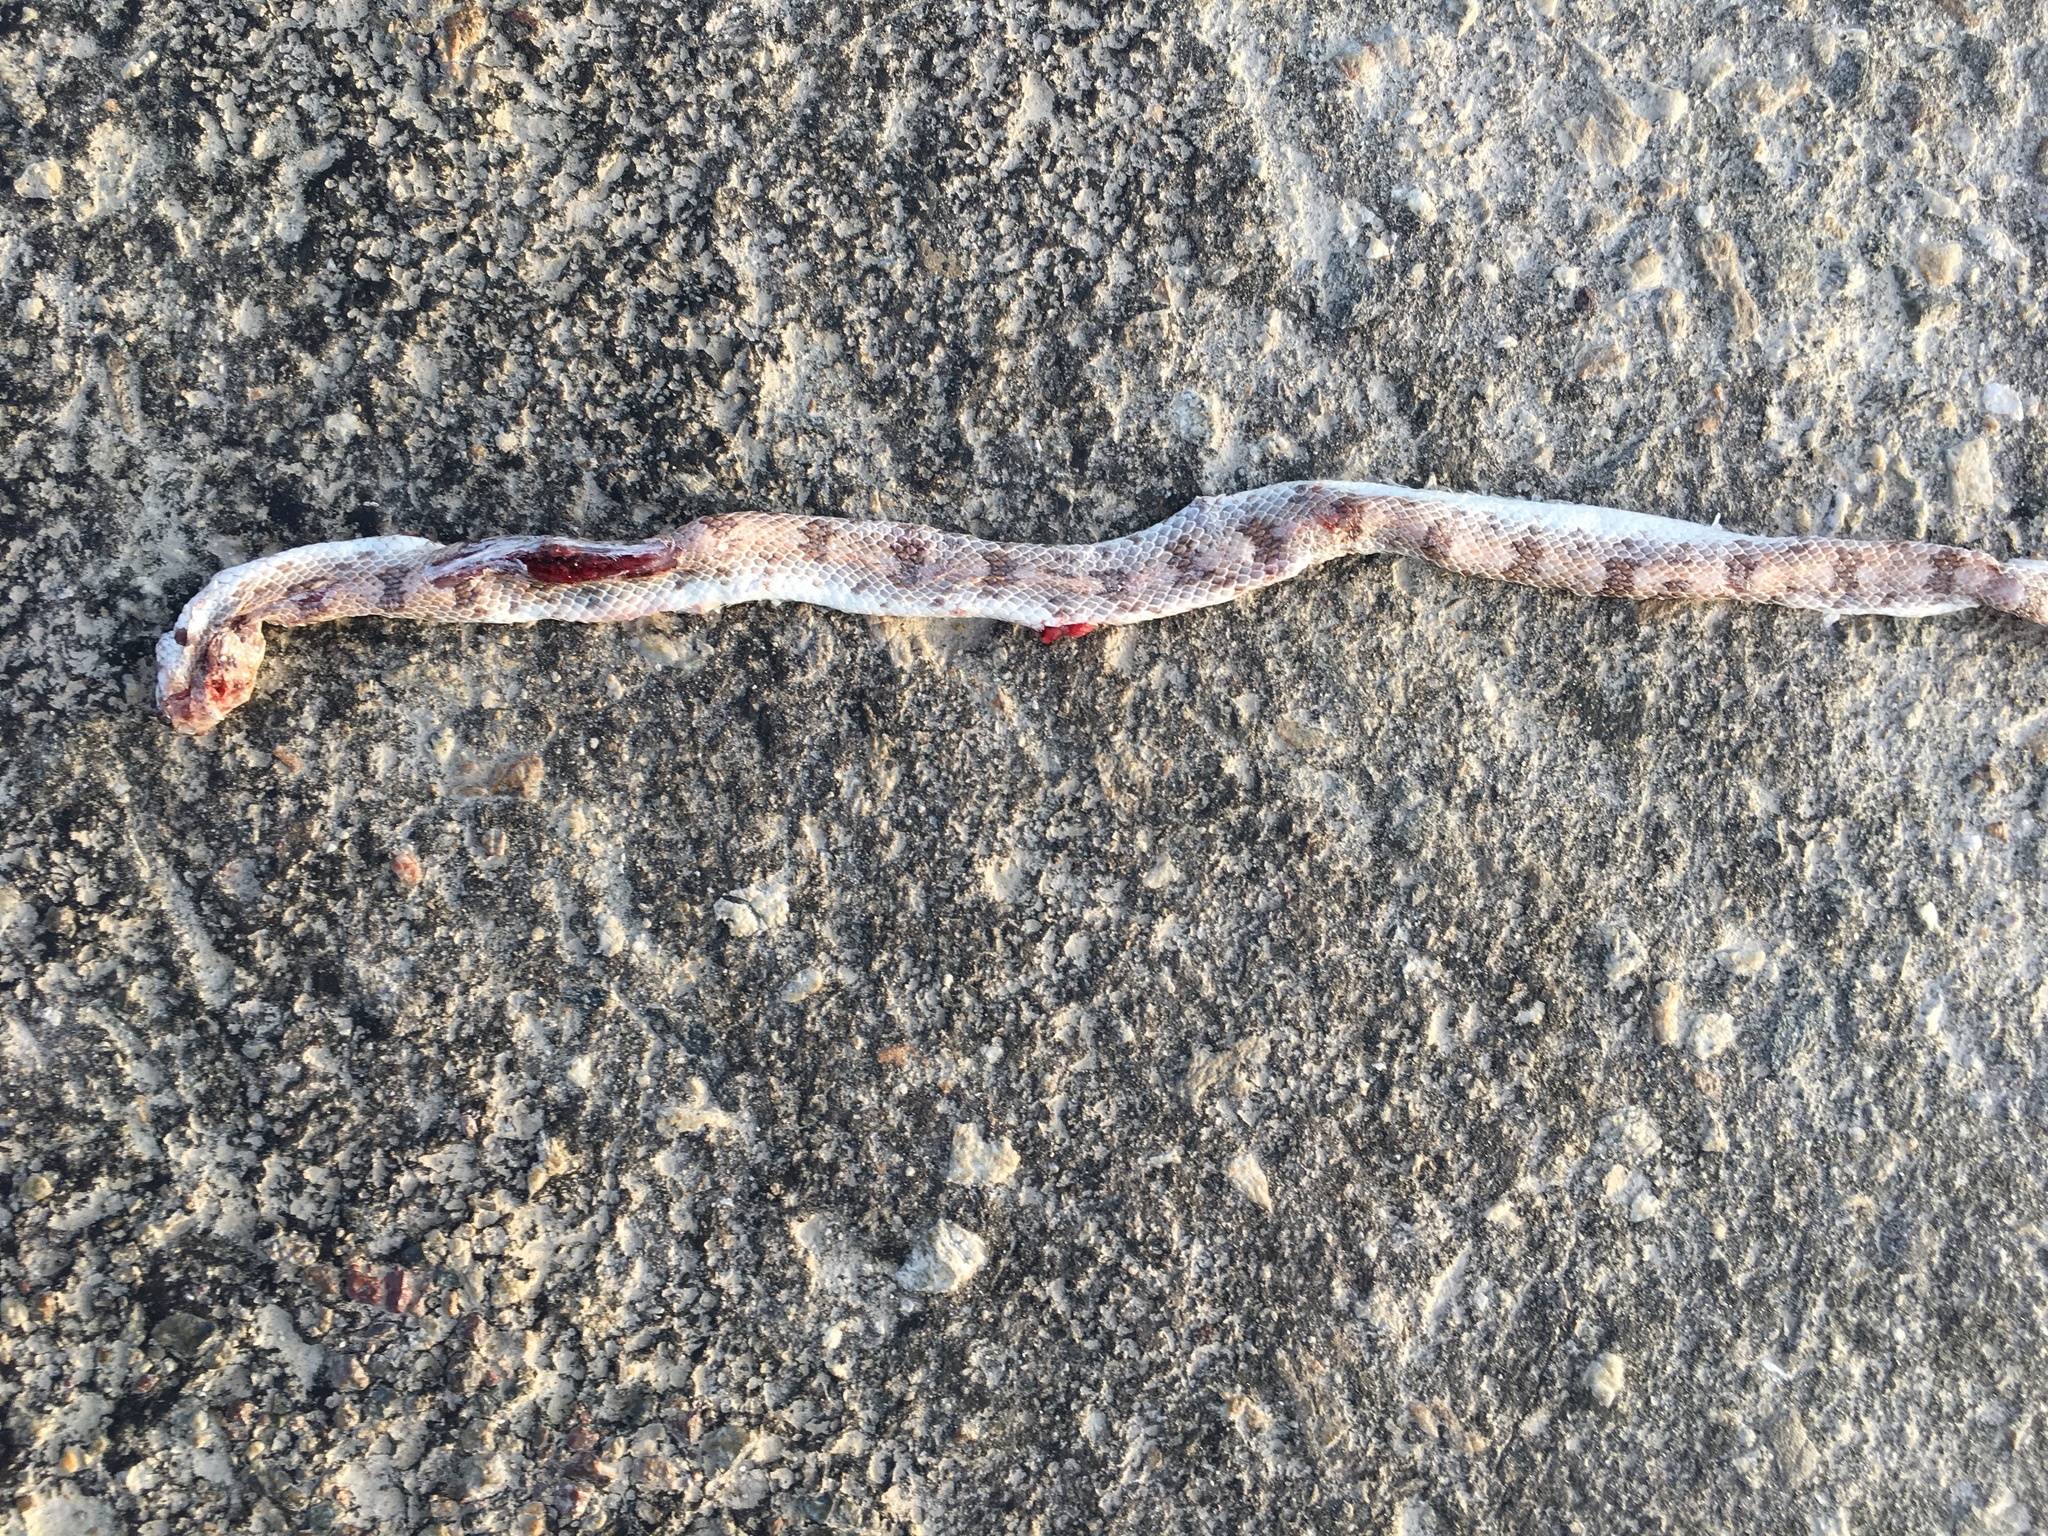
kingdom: Animalia
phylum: Chordata
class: Squamata
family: Colubridae
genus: Phyllorhynchus
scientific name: Phyllorhynchus decurtatus
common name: Spotted leafnose snake
